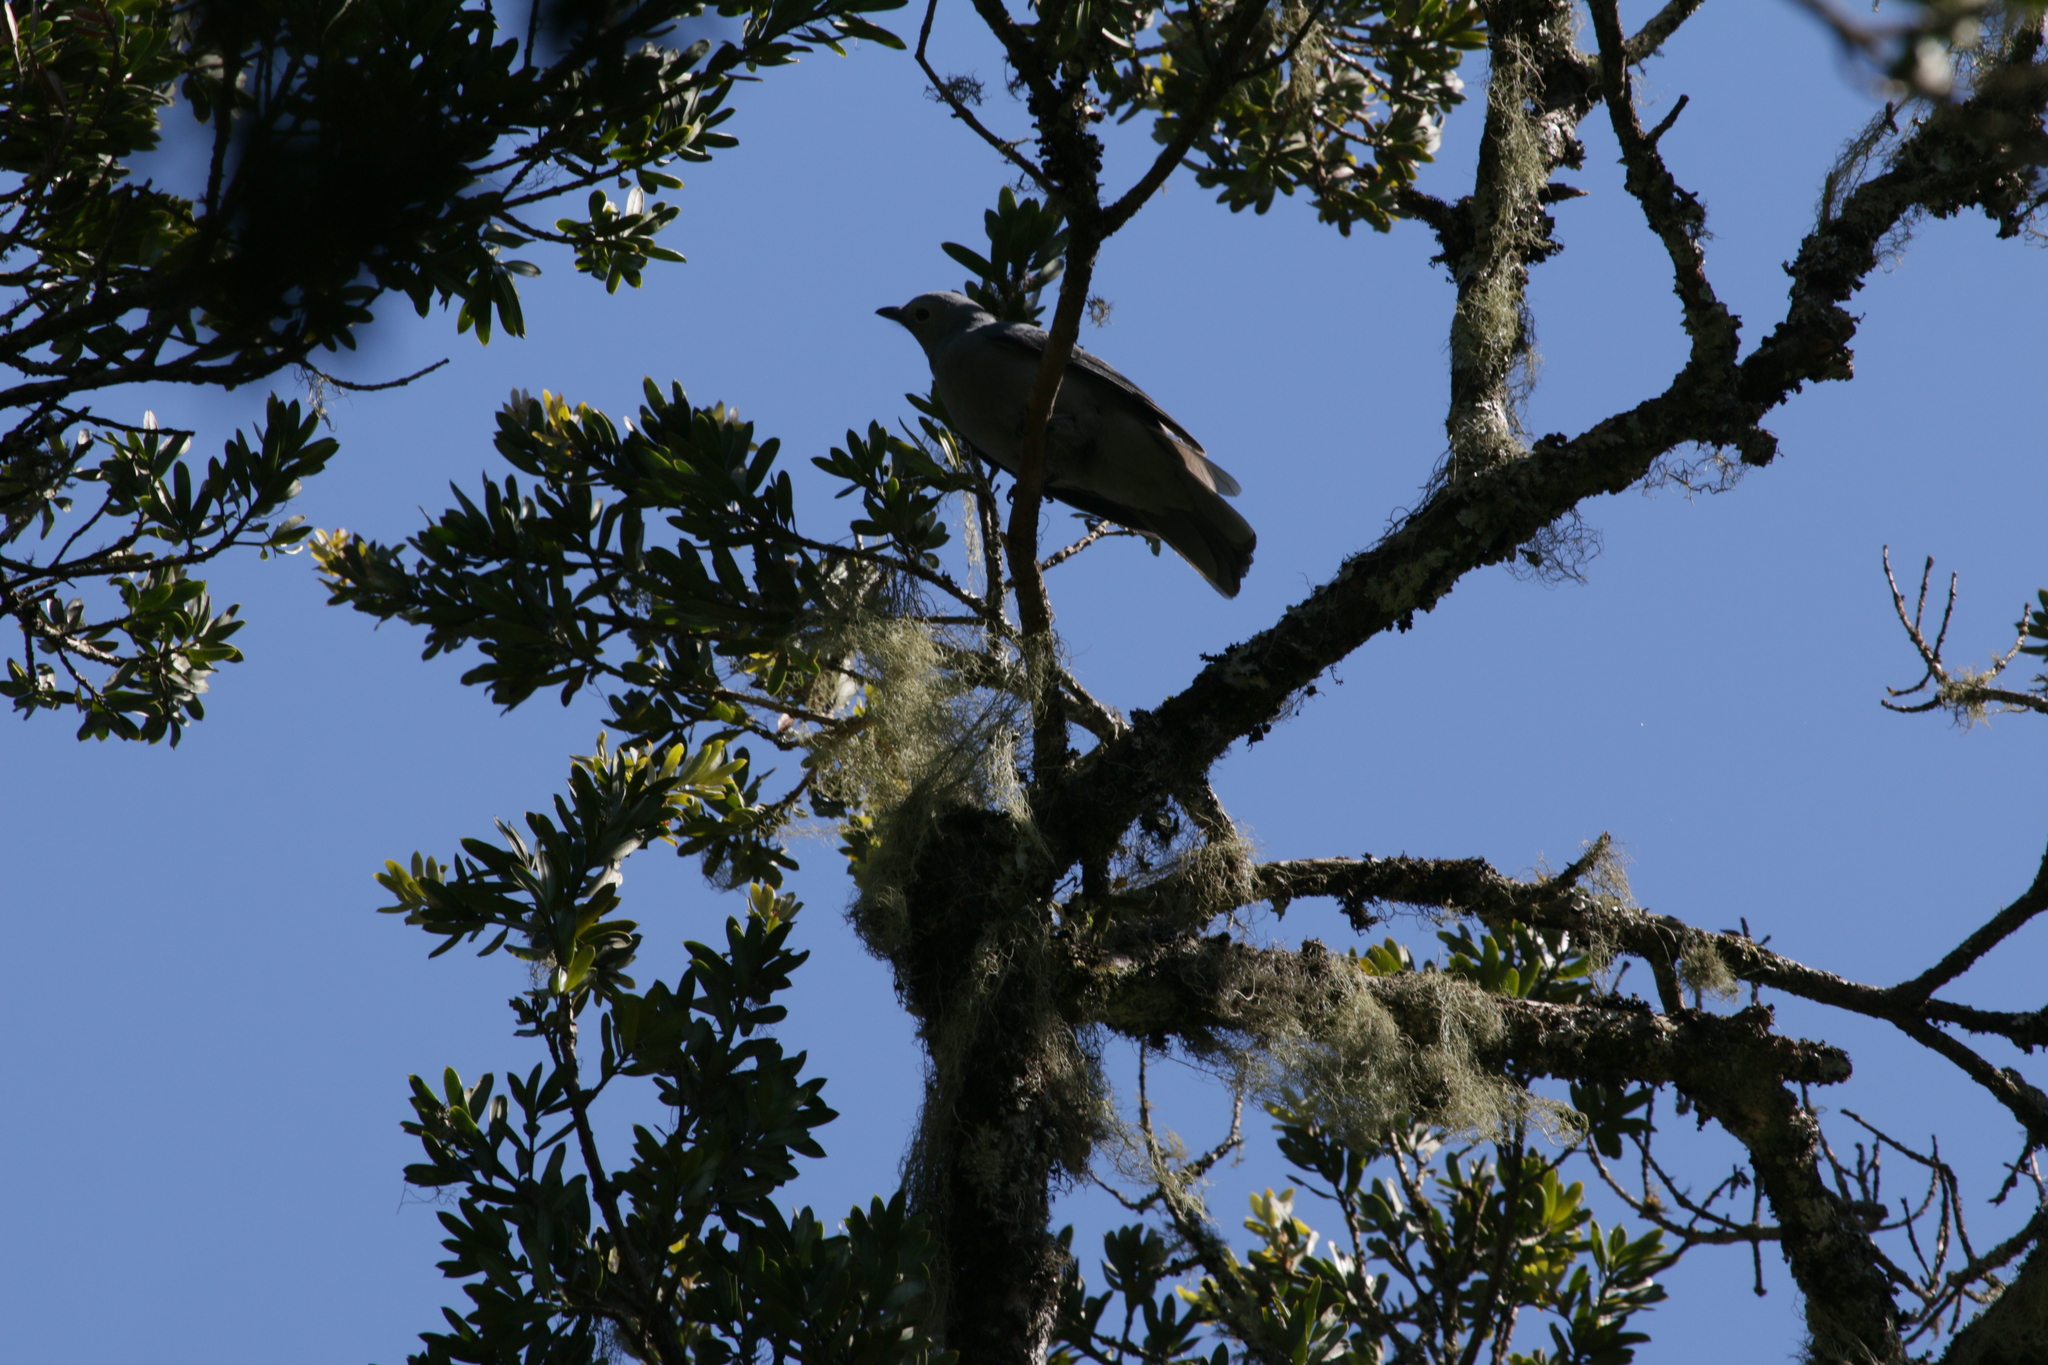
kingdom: Animalia
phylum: Chordata
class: Aves
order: Passeriformes
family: Campephagidae
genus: Coracina
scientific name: Coracina caesia
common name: Grey cuckooshrike
